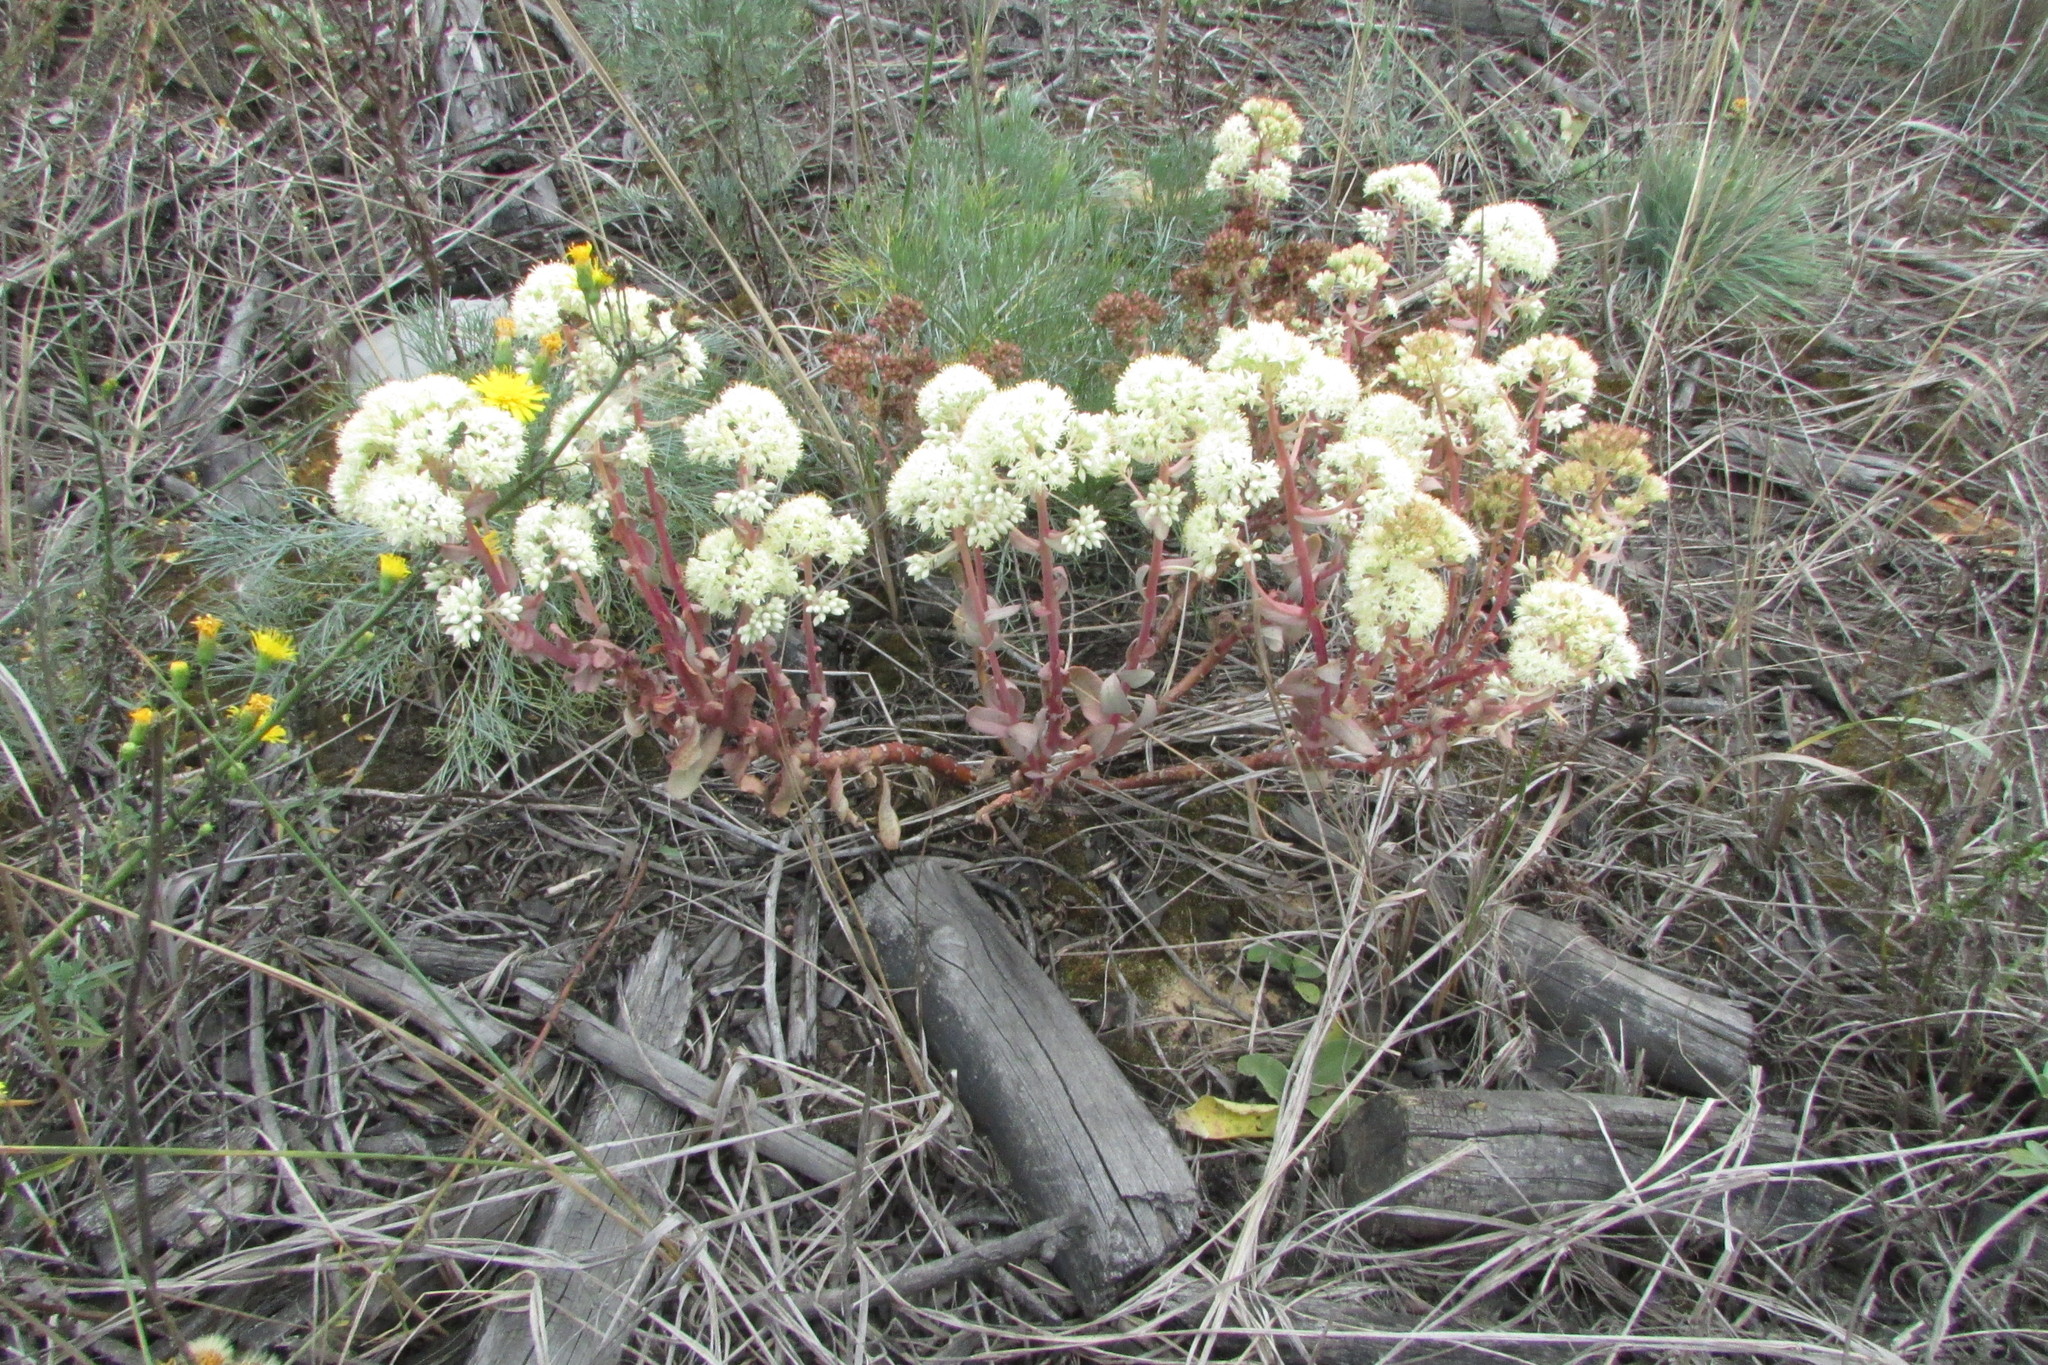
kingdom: Plantae
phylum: Tracheophyta
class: Magnoliopsida
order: Saxifragales
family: Crassulaceae
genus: Hylotelephium
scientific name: Hylotelephium maximum
